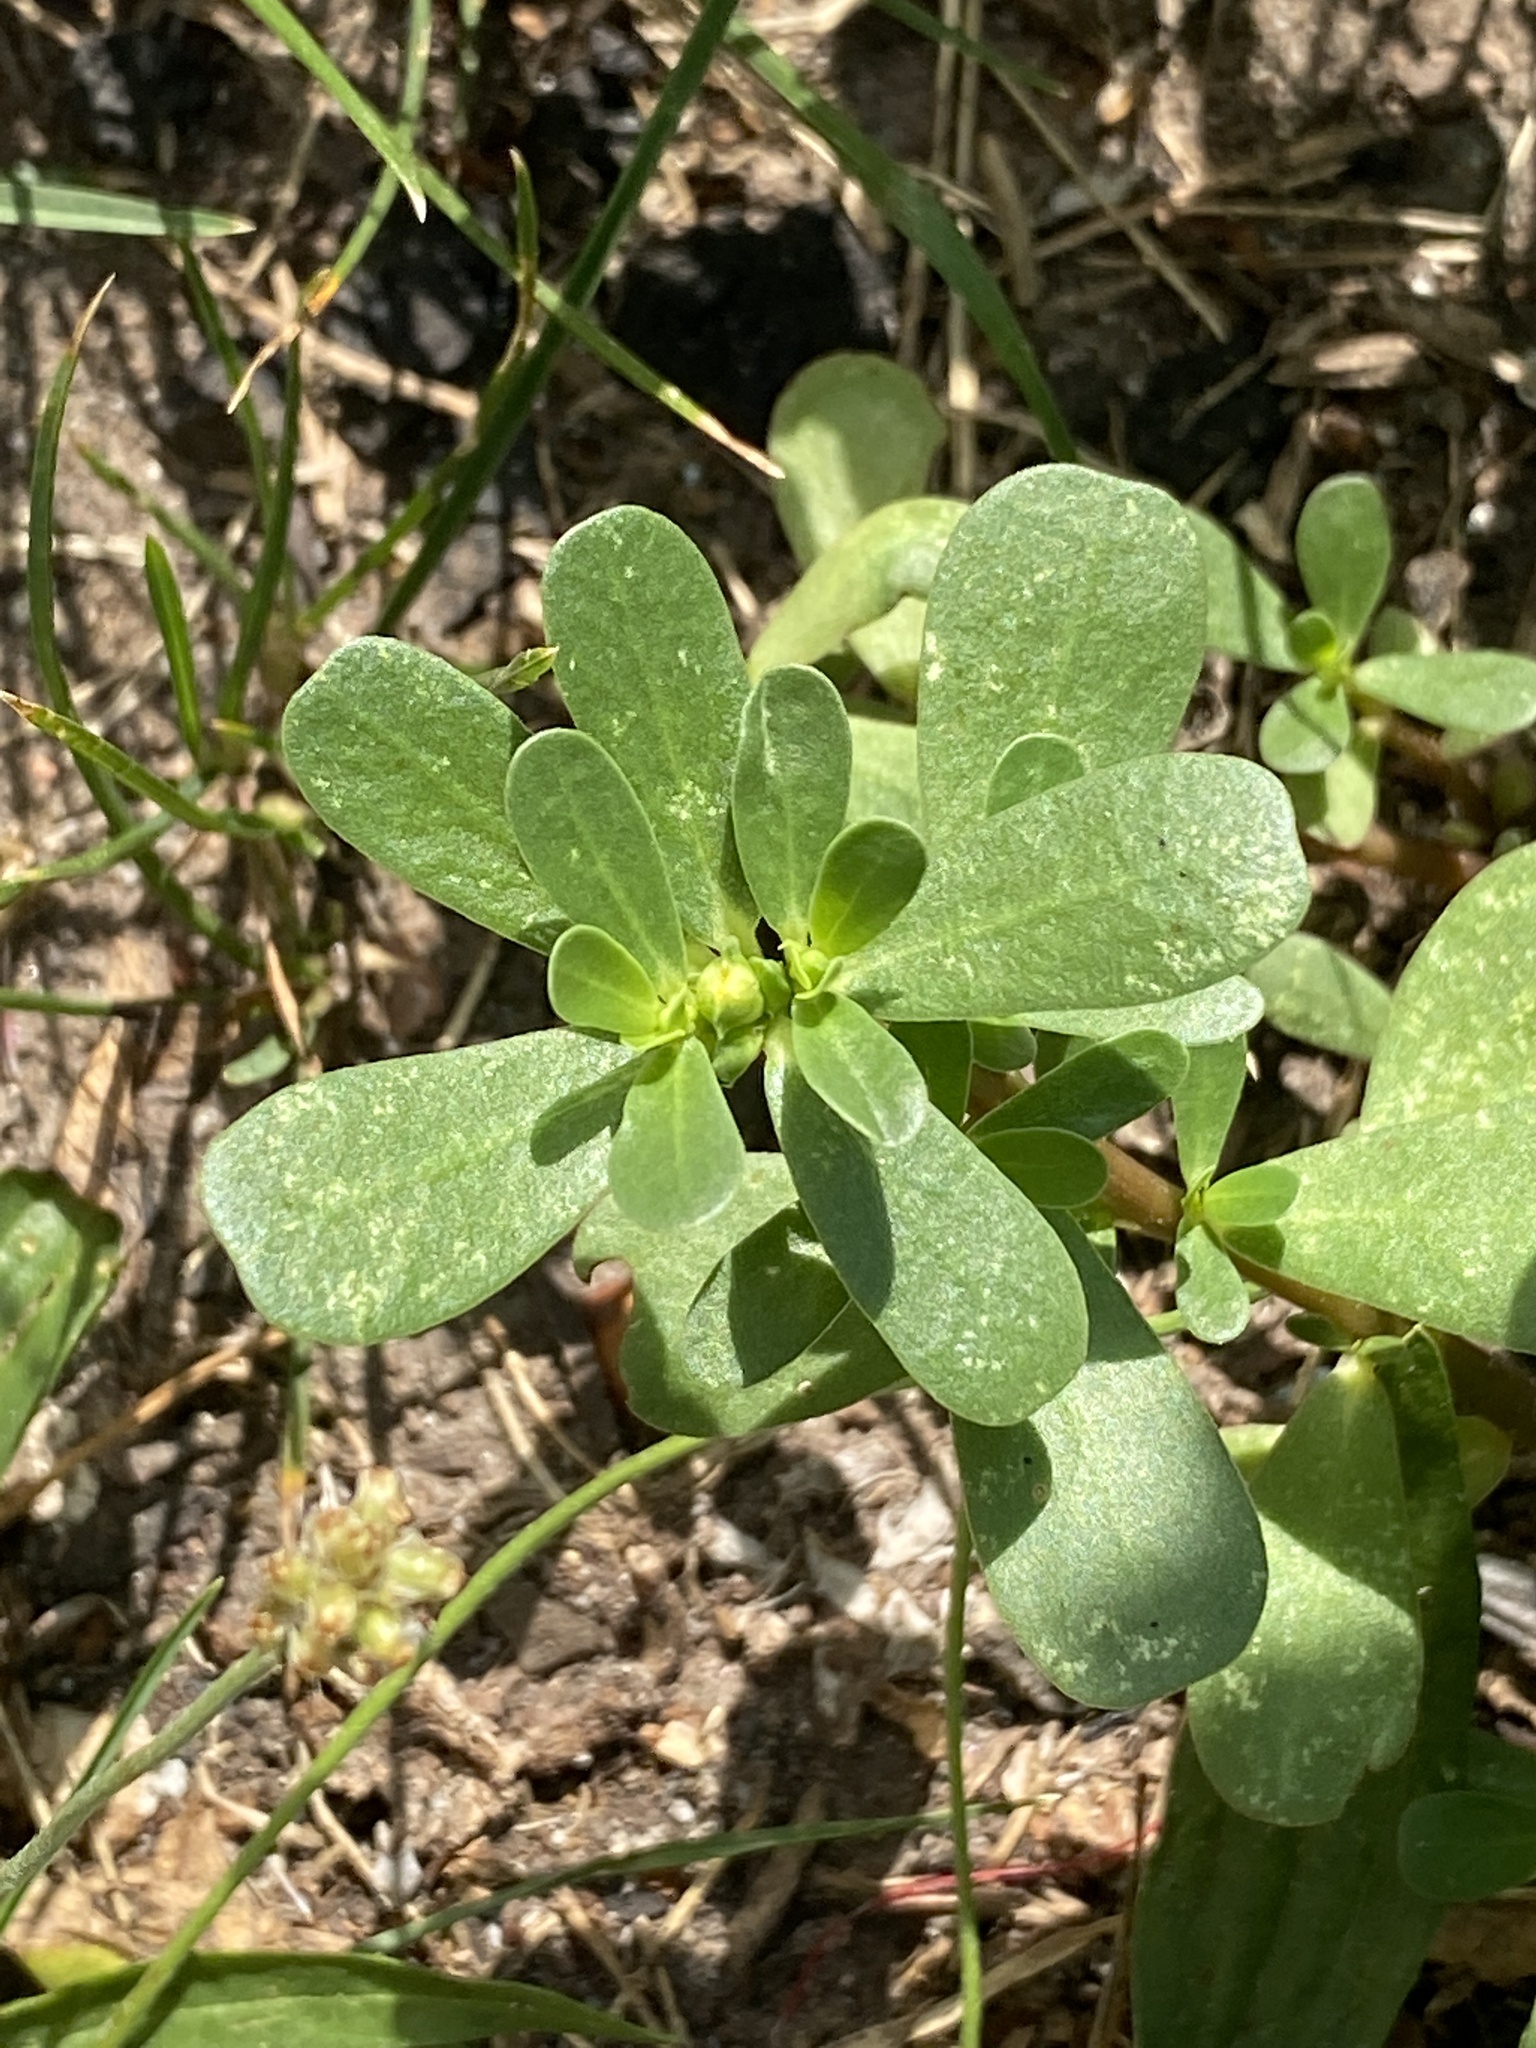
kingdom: Plantae
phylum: Tracheophyta
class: Magnoliopsida
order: Caryophyllales
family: Portulacaceae
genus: Portulaca
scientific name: Portulaca oleracea
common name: Common purslane
